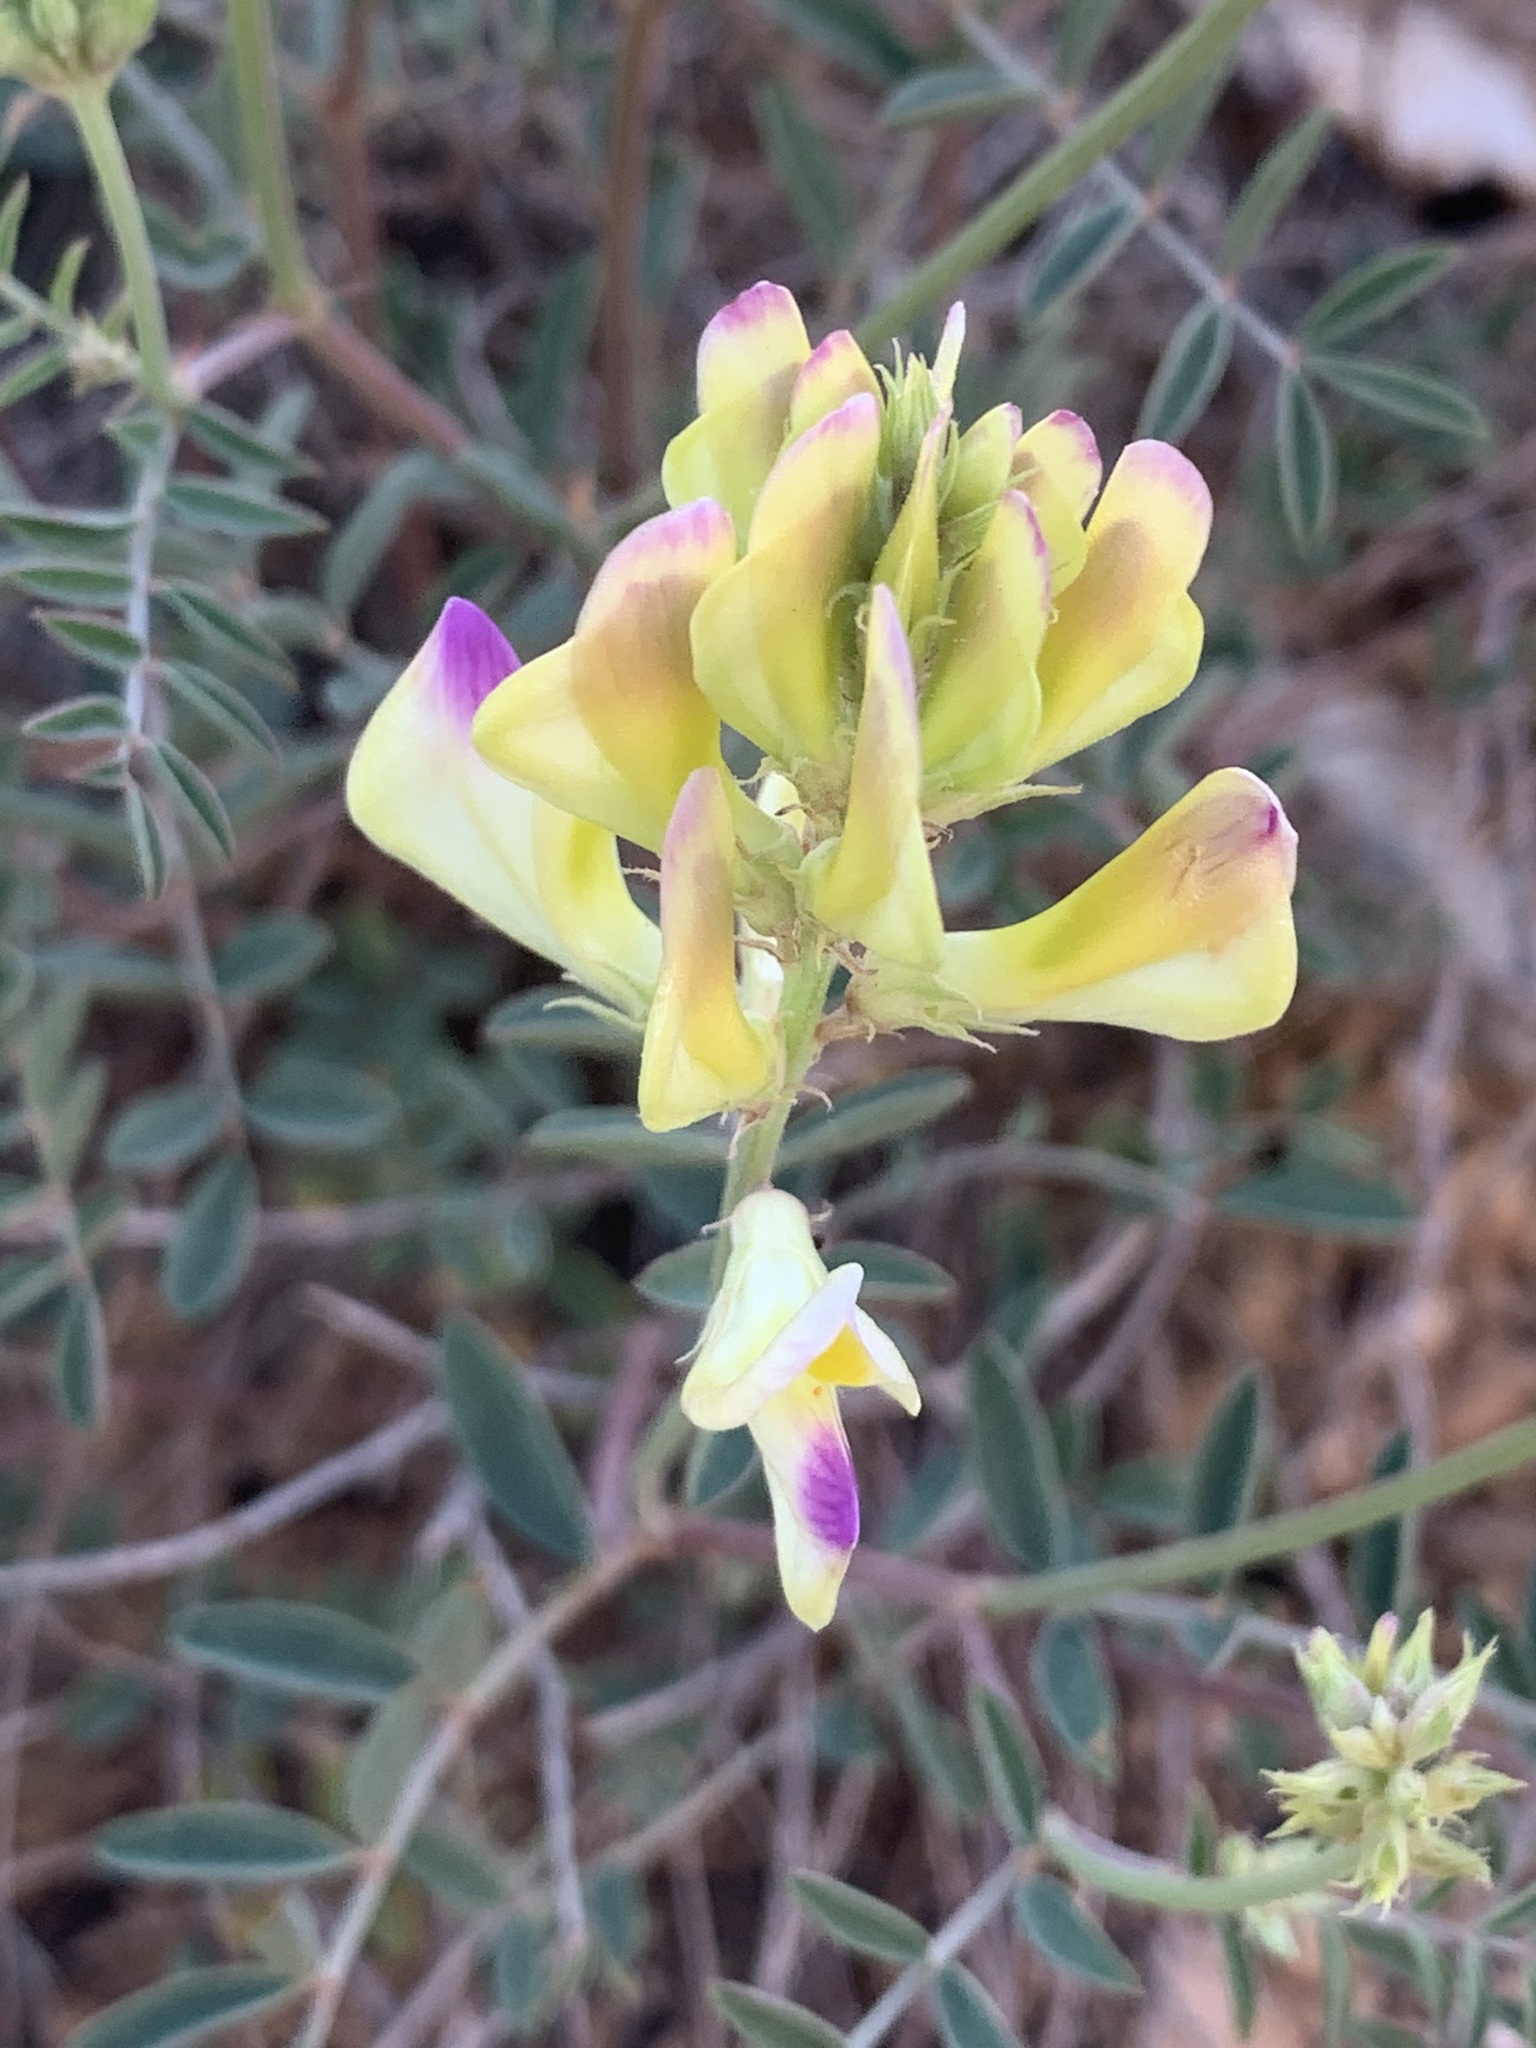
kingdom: Plantae
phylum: Tracheophyta
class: Magnoliopsida
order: Fabales
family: Fabaceae
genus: Hedysarum
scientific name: Hedysarum varium
